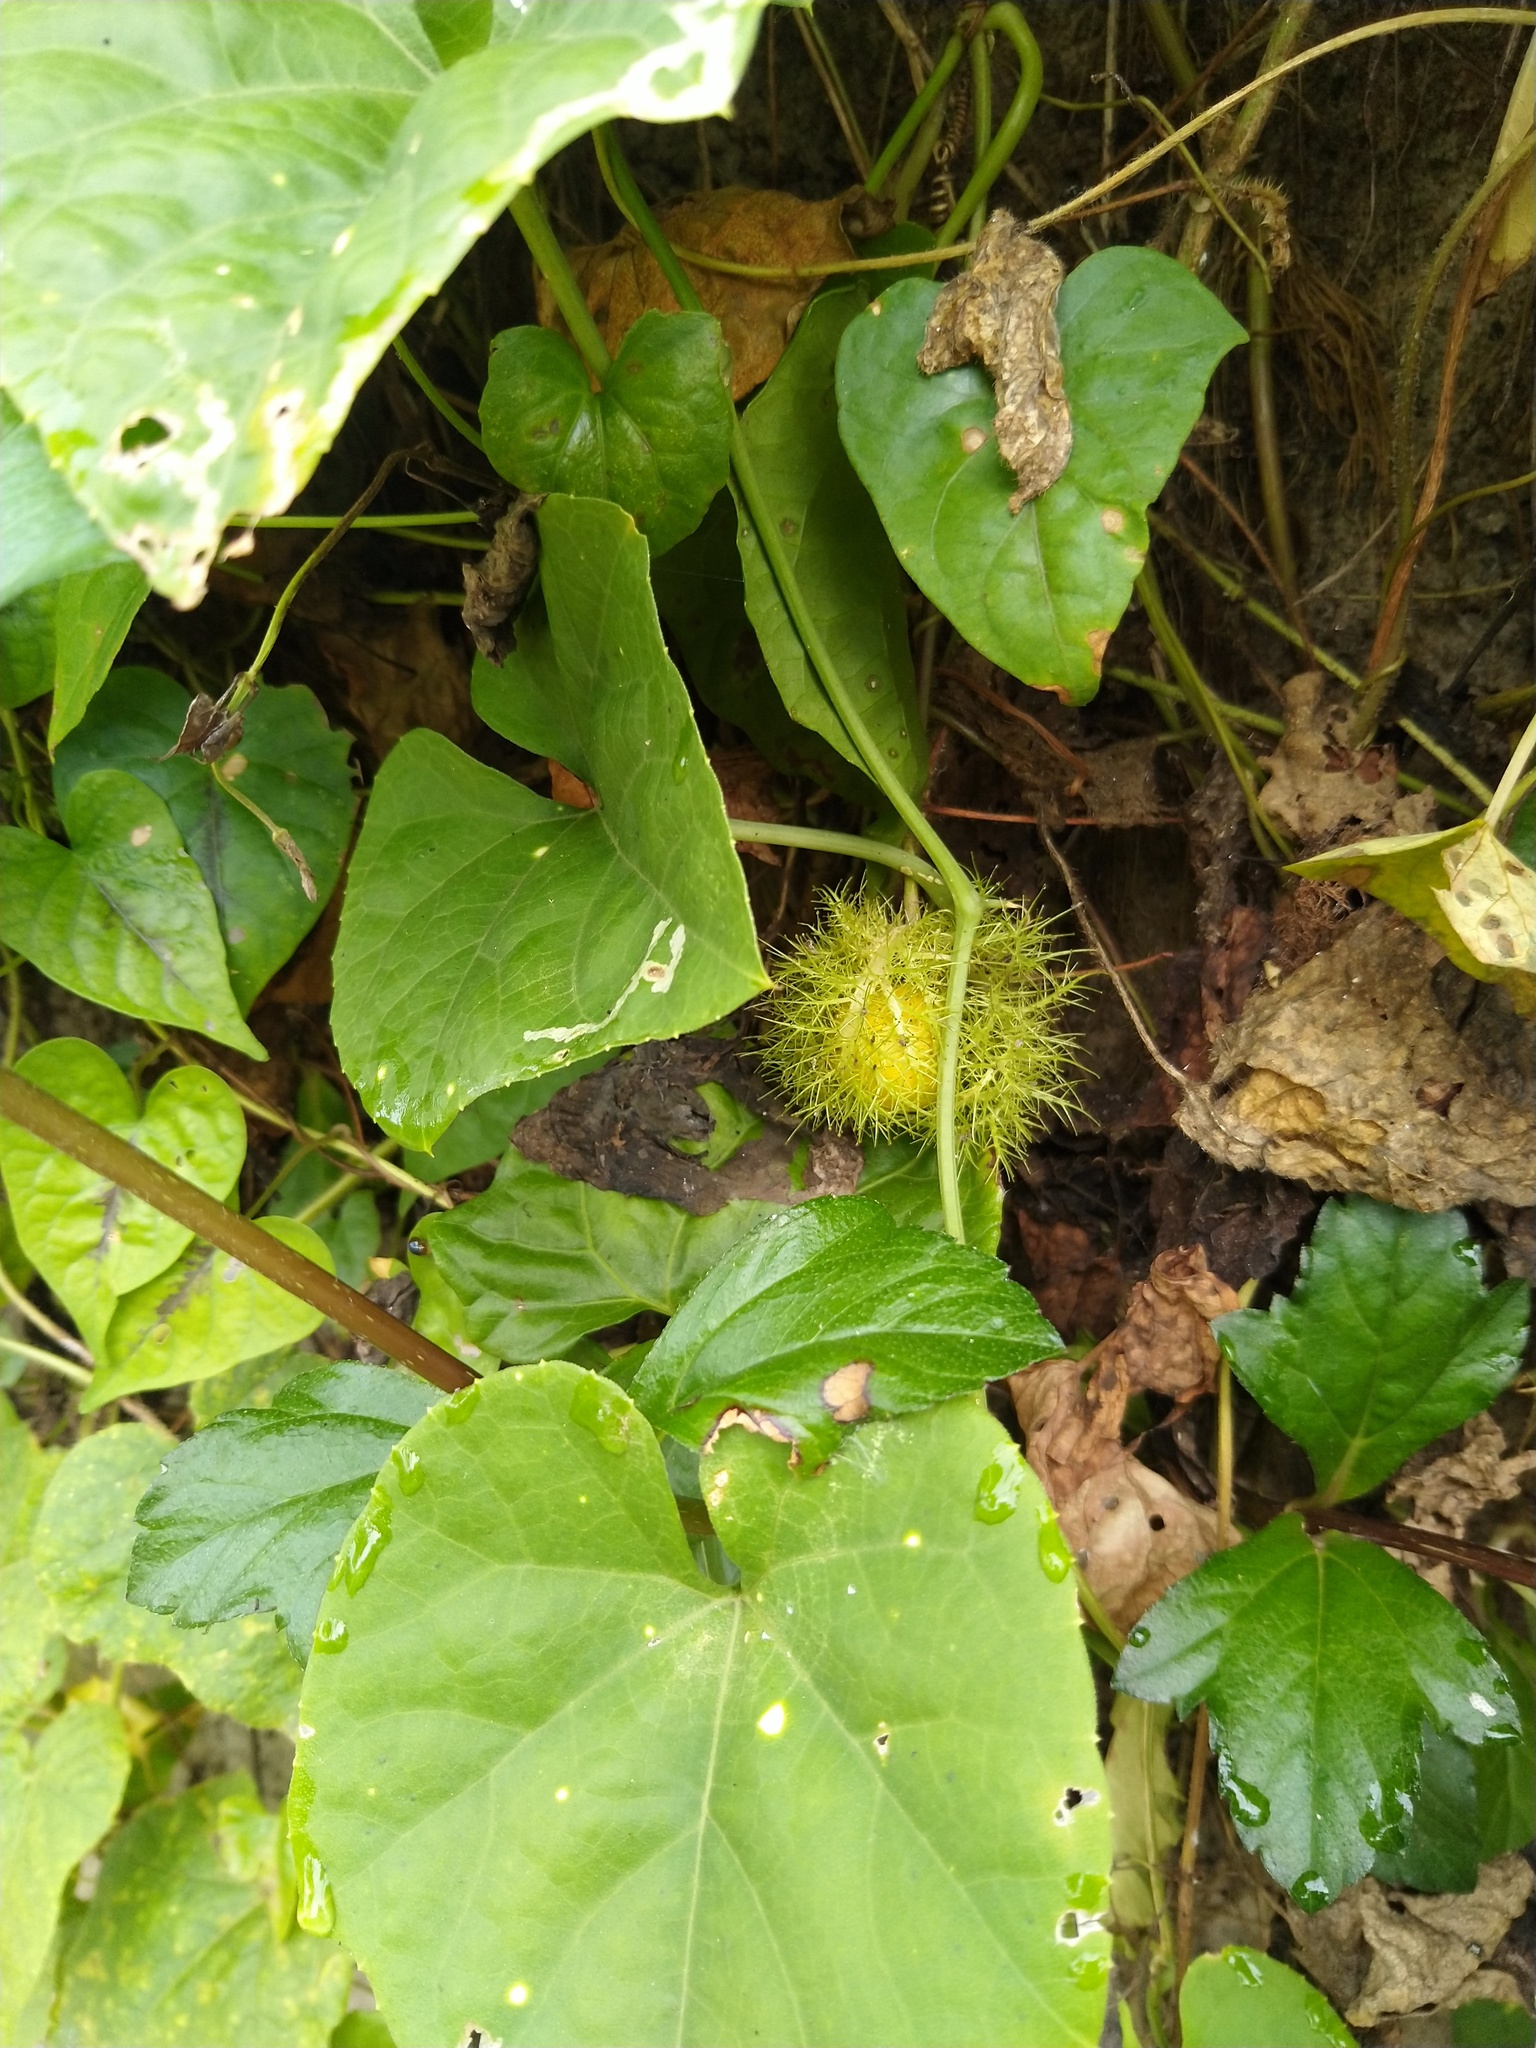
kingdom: Plantae
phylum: Tracheophyta
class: Magnoliopsida
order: Malpighiales
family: Passifloraceae
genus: Passiflora
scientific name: Passiflora foetida
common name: Fetid passionflower
